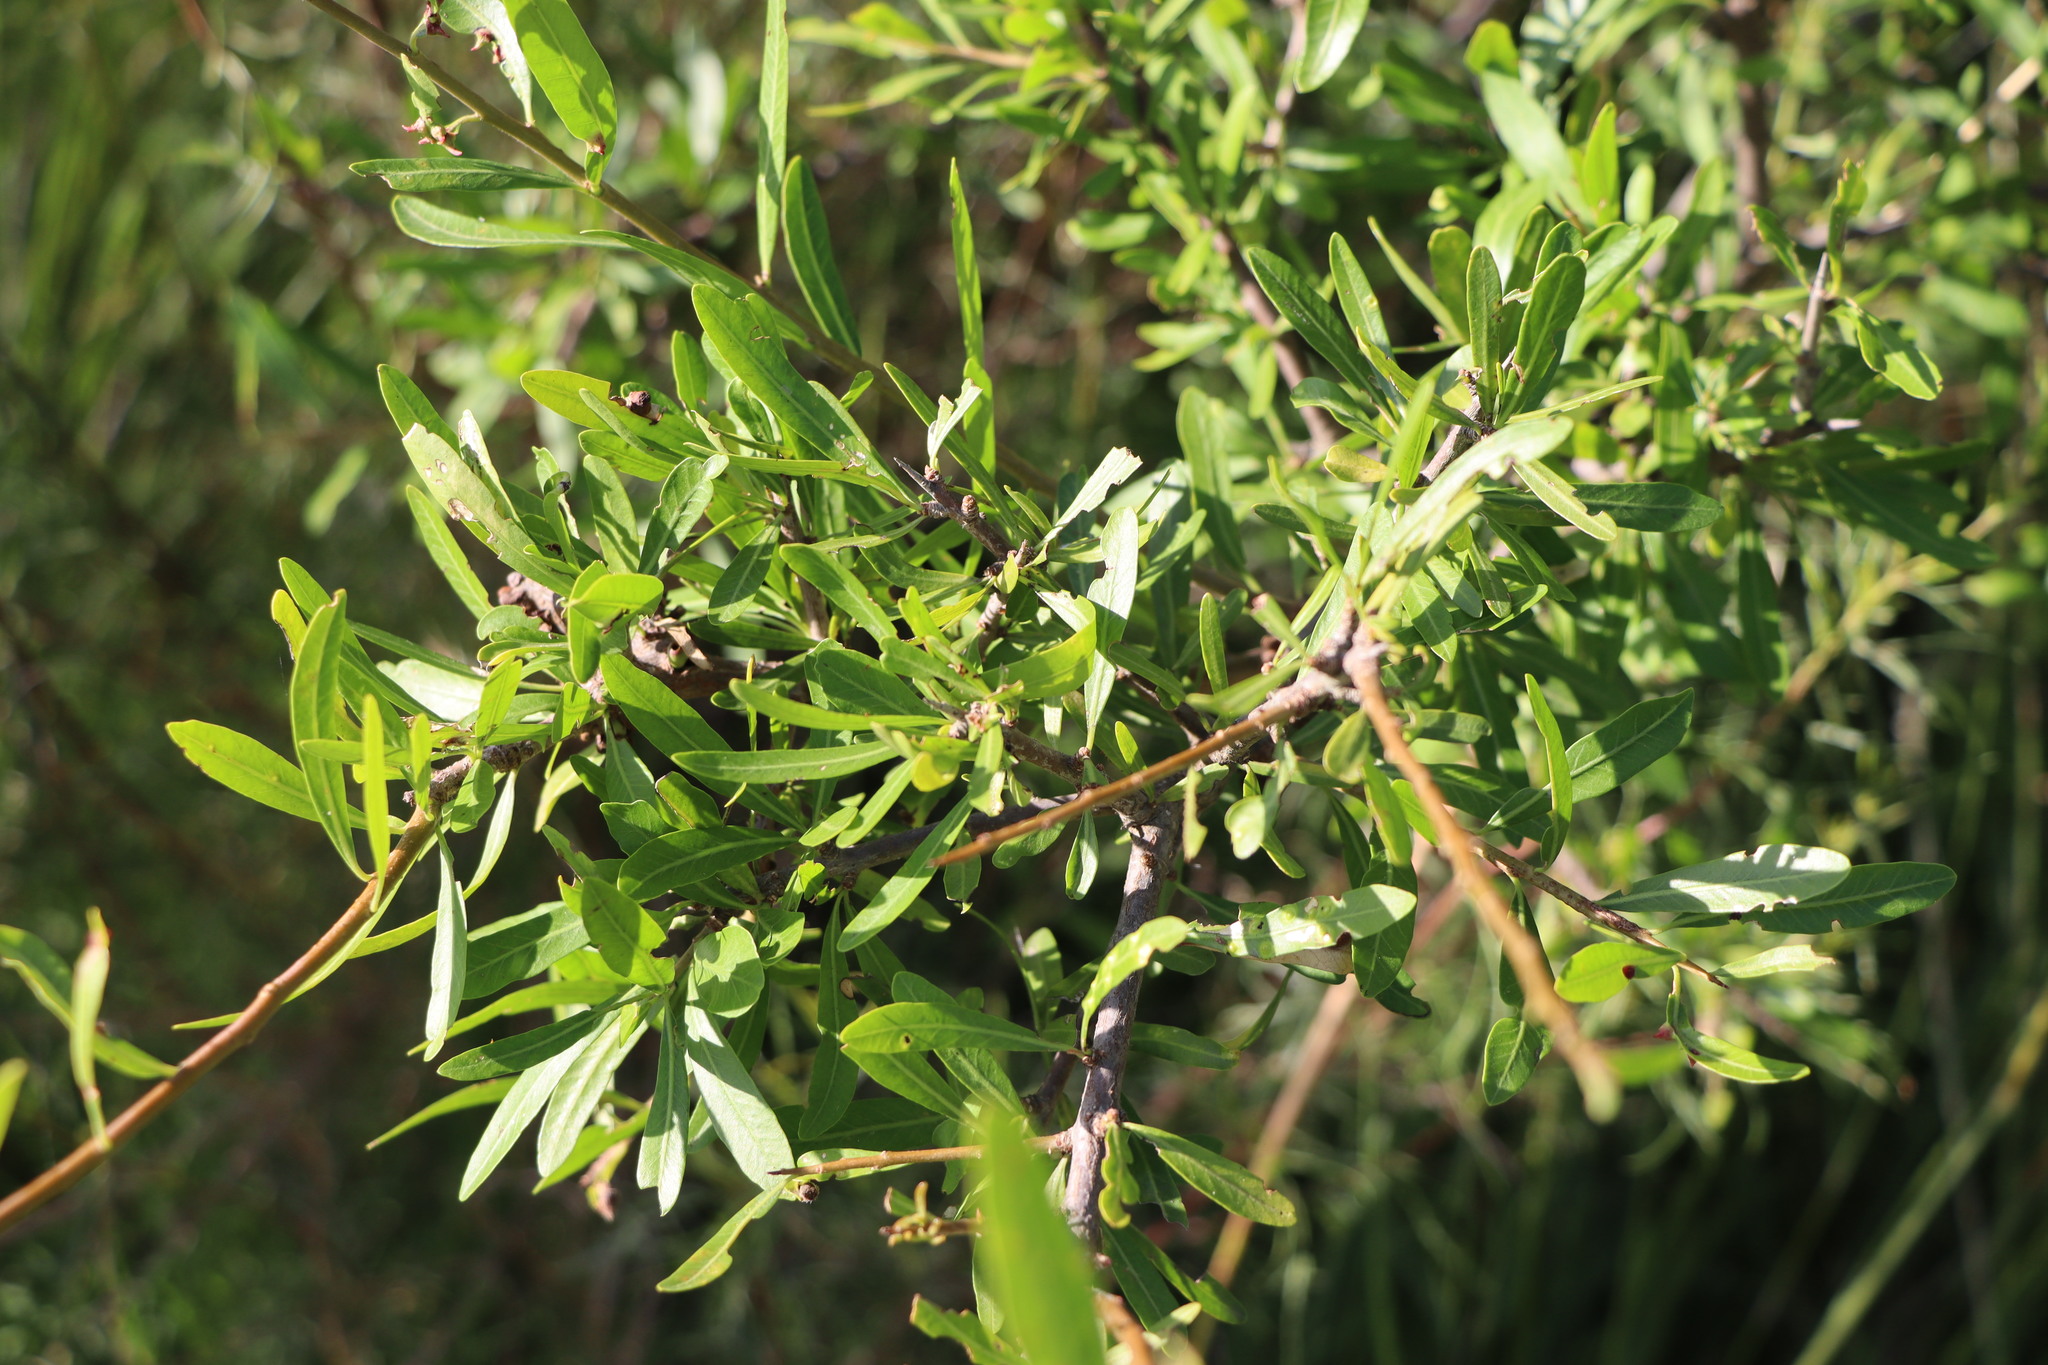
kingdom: Plantae
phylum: Tracheophyta
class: Magnoliopsida
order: Sapindales
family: Anacardiaceae
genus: Schinus
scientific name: Schinus longifolia
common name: Longleaf peppertree
